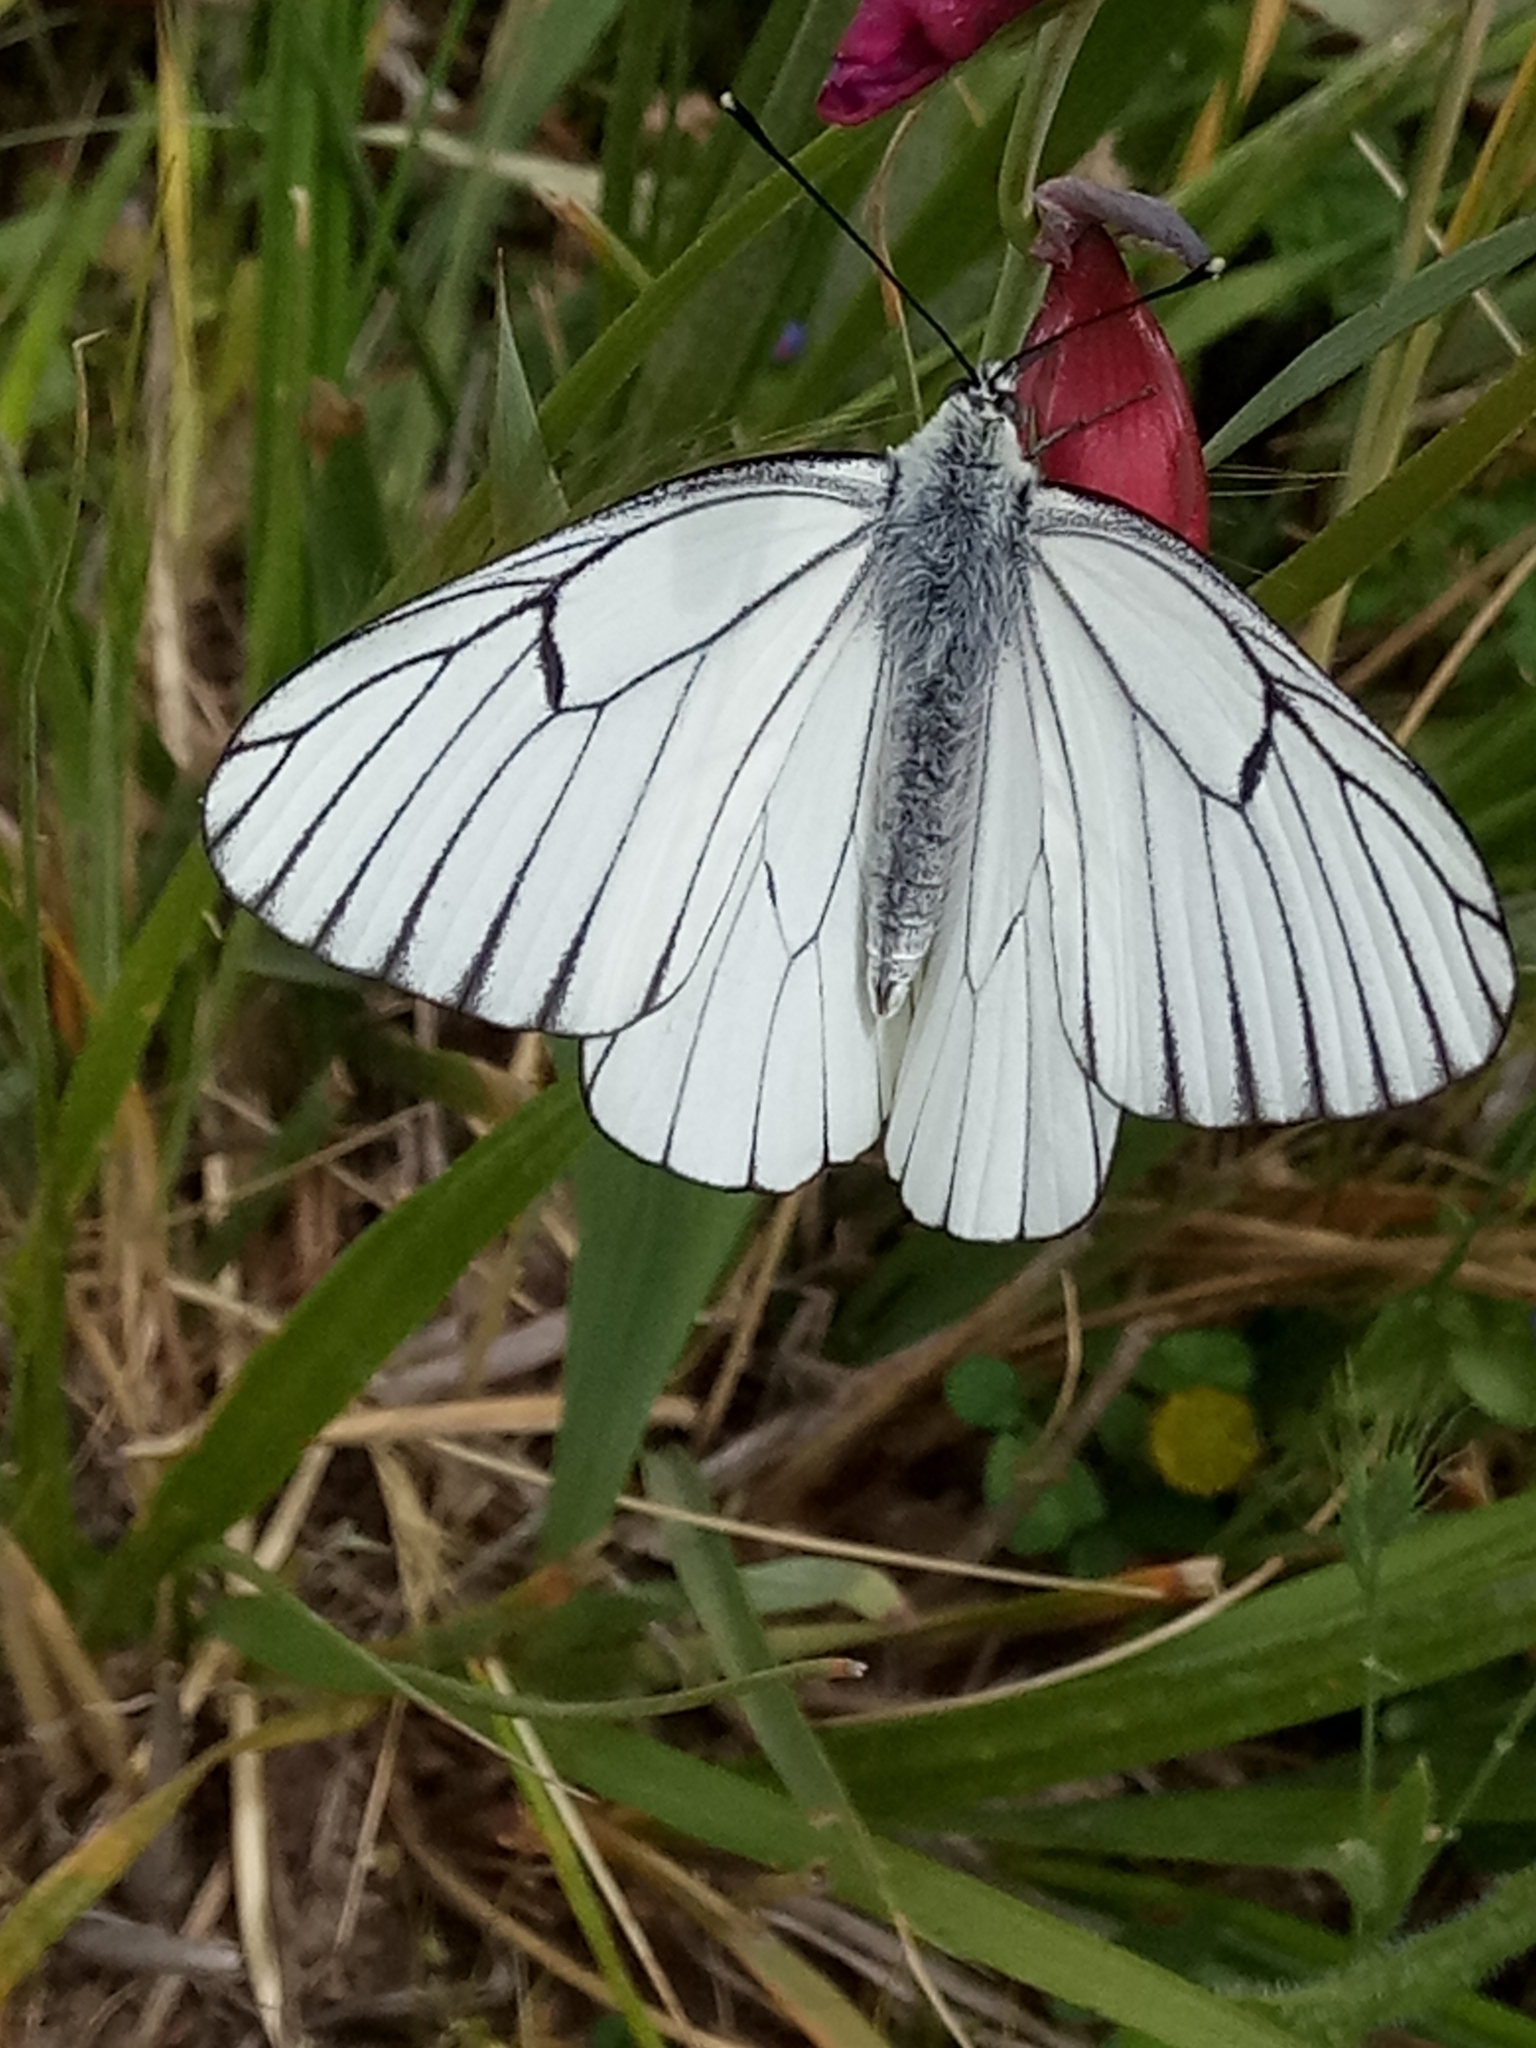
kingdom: Animalia
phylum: Arthropoda
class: Insecta
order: Lepidoptera
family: Pieridae
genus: Aporia
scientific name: Aporia crataegi
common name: Black-veined white
